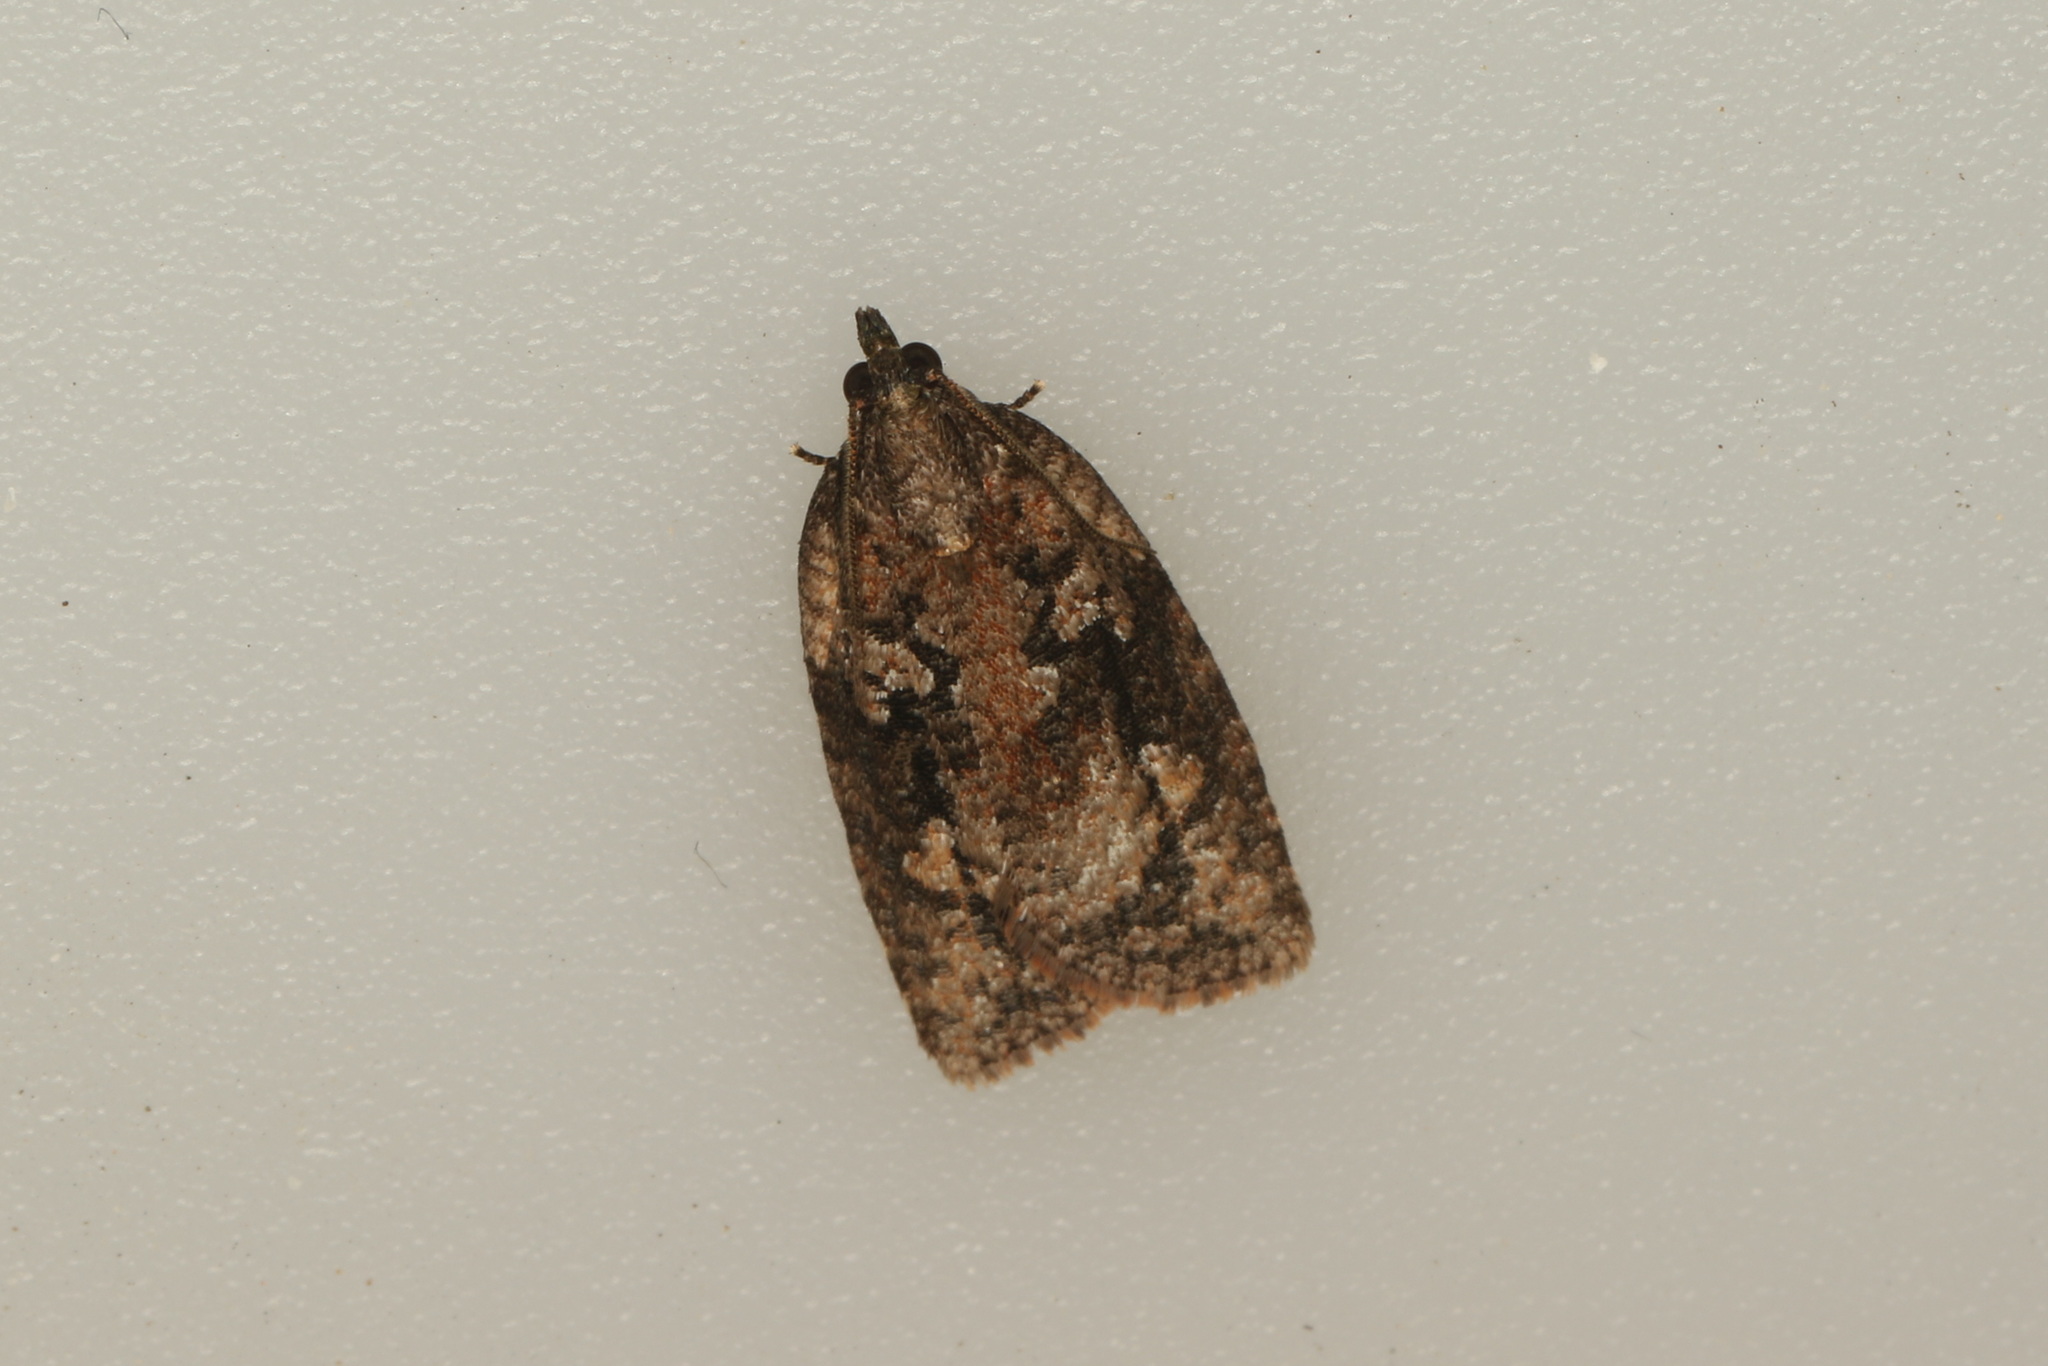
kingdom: Animalia
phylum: Arthropoda
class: Insecta
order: Lepidoptera
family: Tortricidae
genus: Thrincophora
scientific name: Thrincophora impletana
